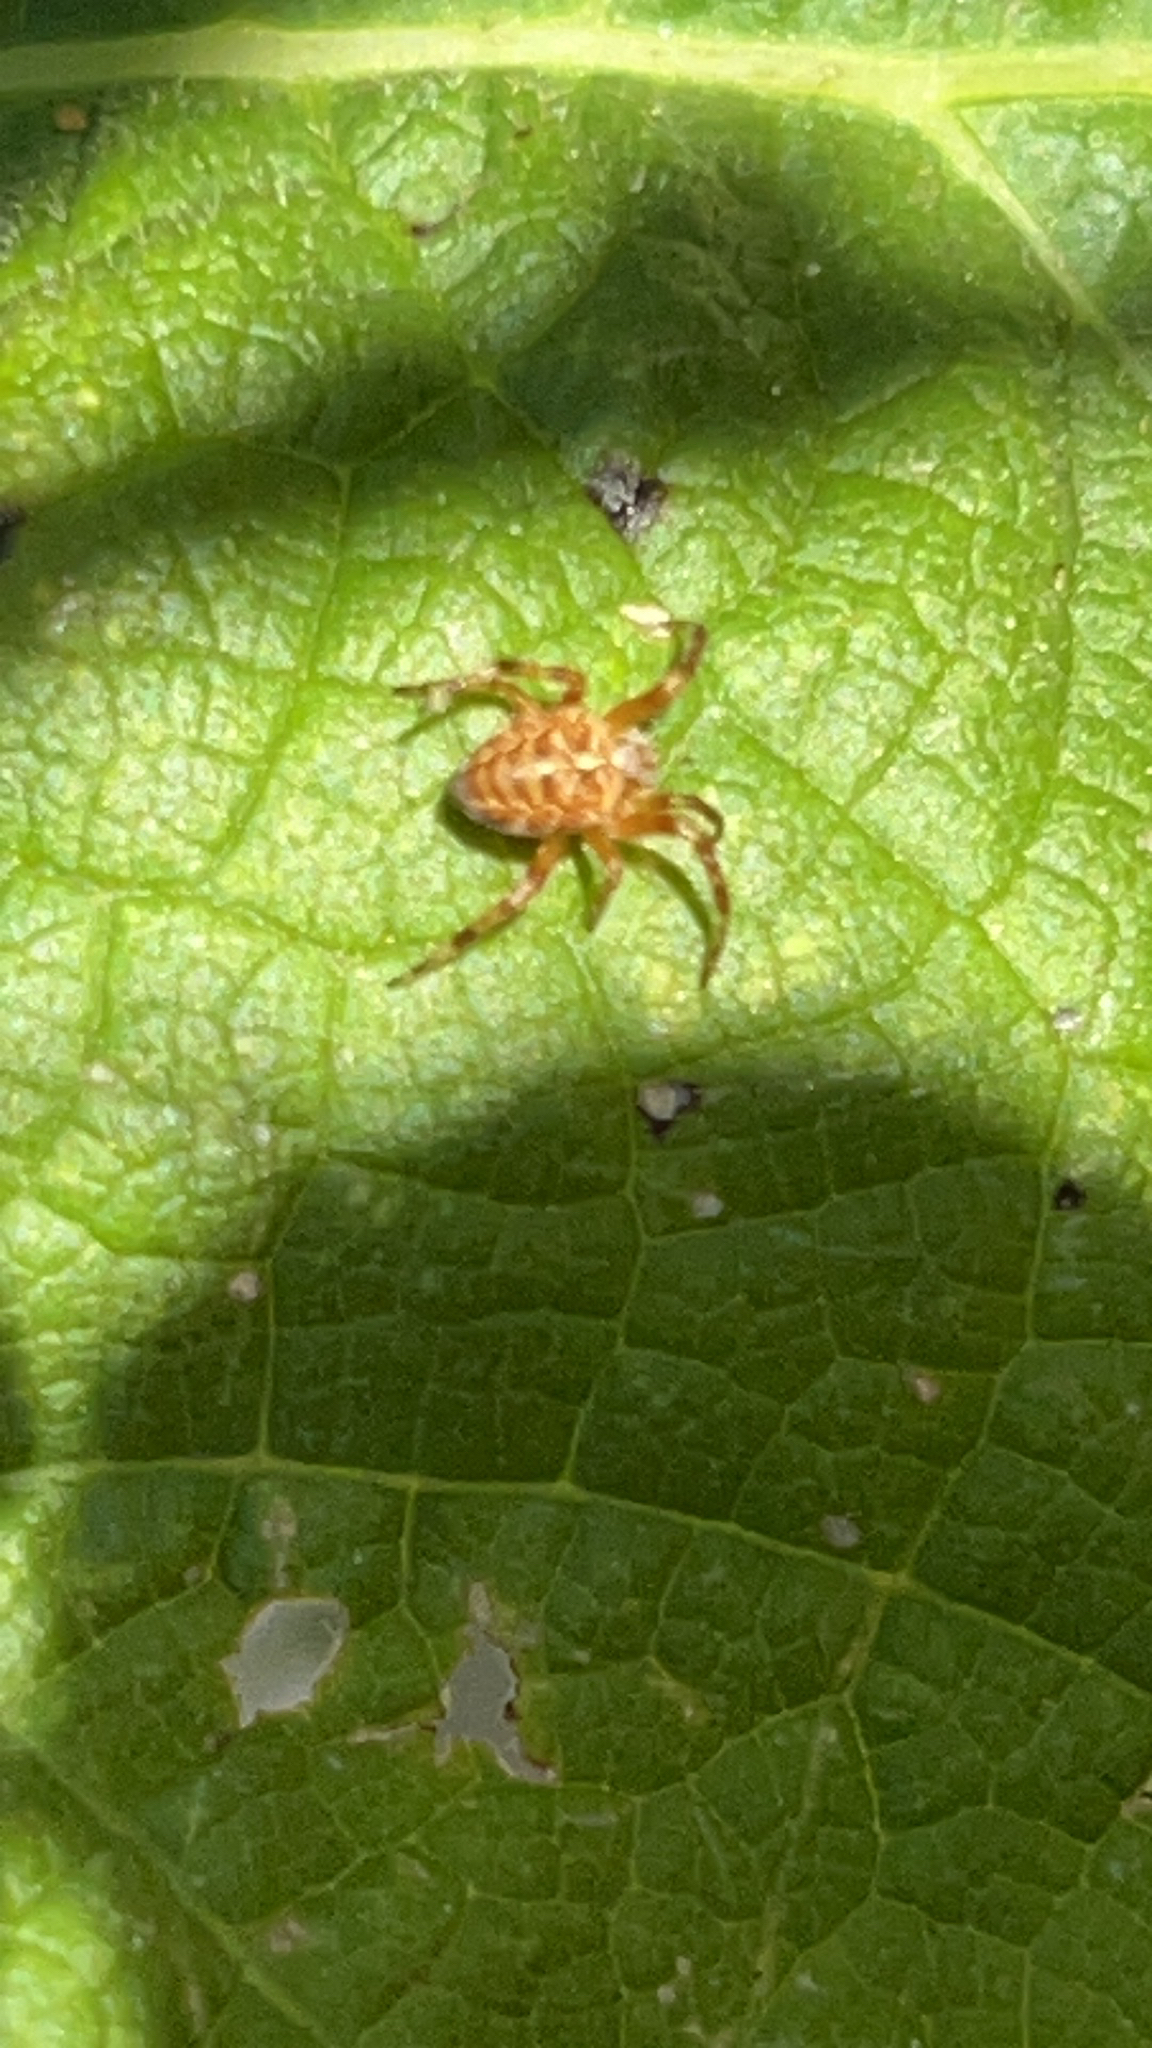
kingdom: Animalia
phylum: Arthropoda
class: Arachnida
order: Araneae
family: Araneidae
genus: Araneus
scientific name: Araneus diadematus
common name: Cross orbweaver
